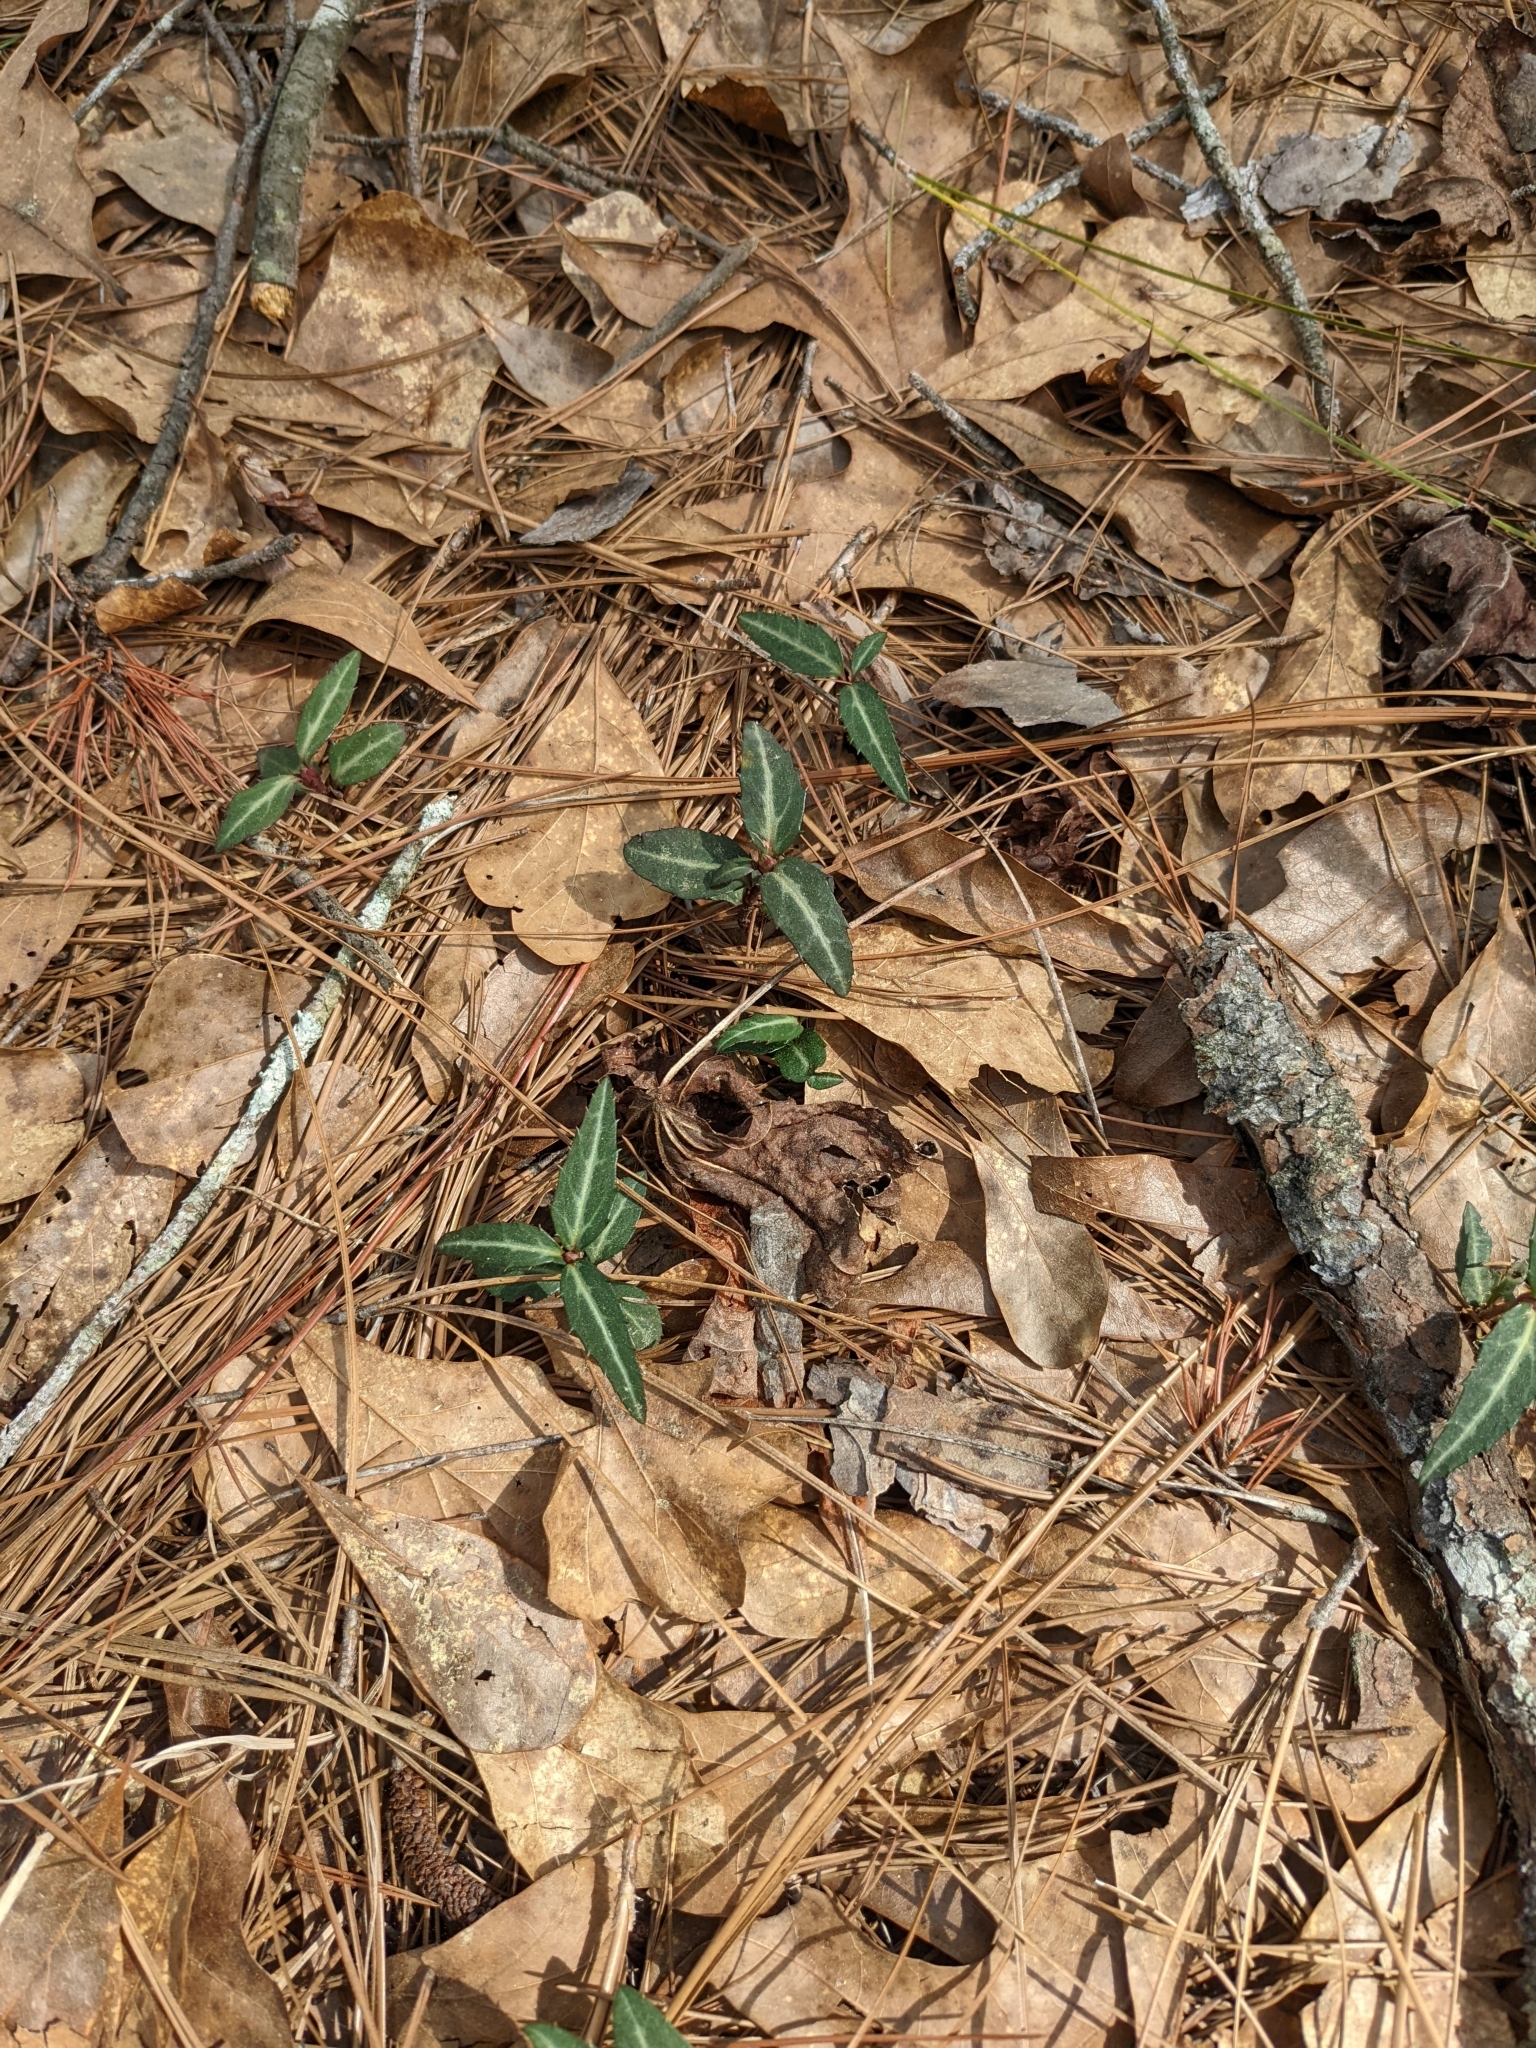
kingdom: Plantae
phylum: Tracheophyta
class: Magnoliopsida
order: Ericales
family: Ericaceae
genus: Chimaphila
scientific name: Chimaphila maculata
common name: Spotted pipsissewa
